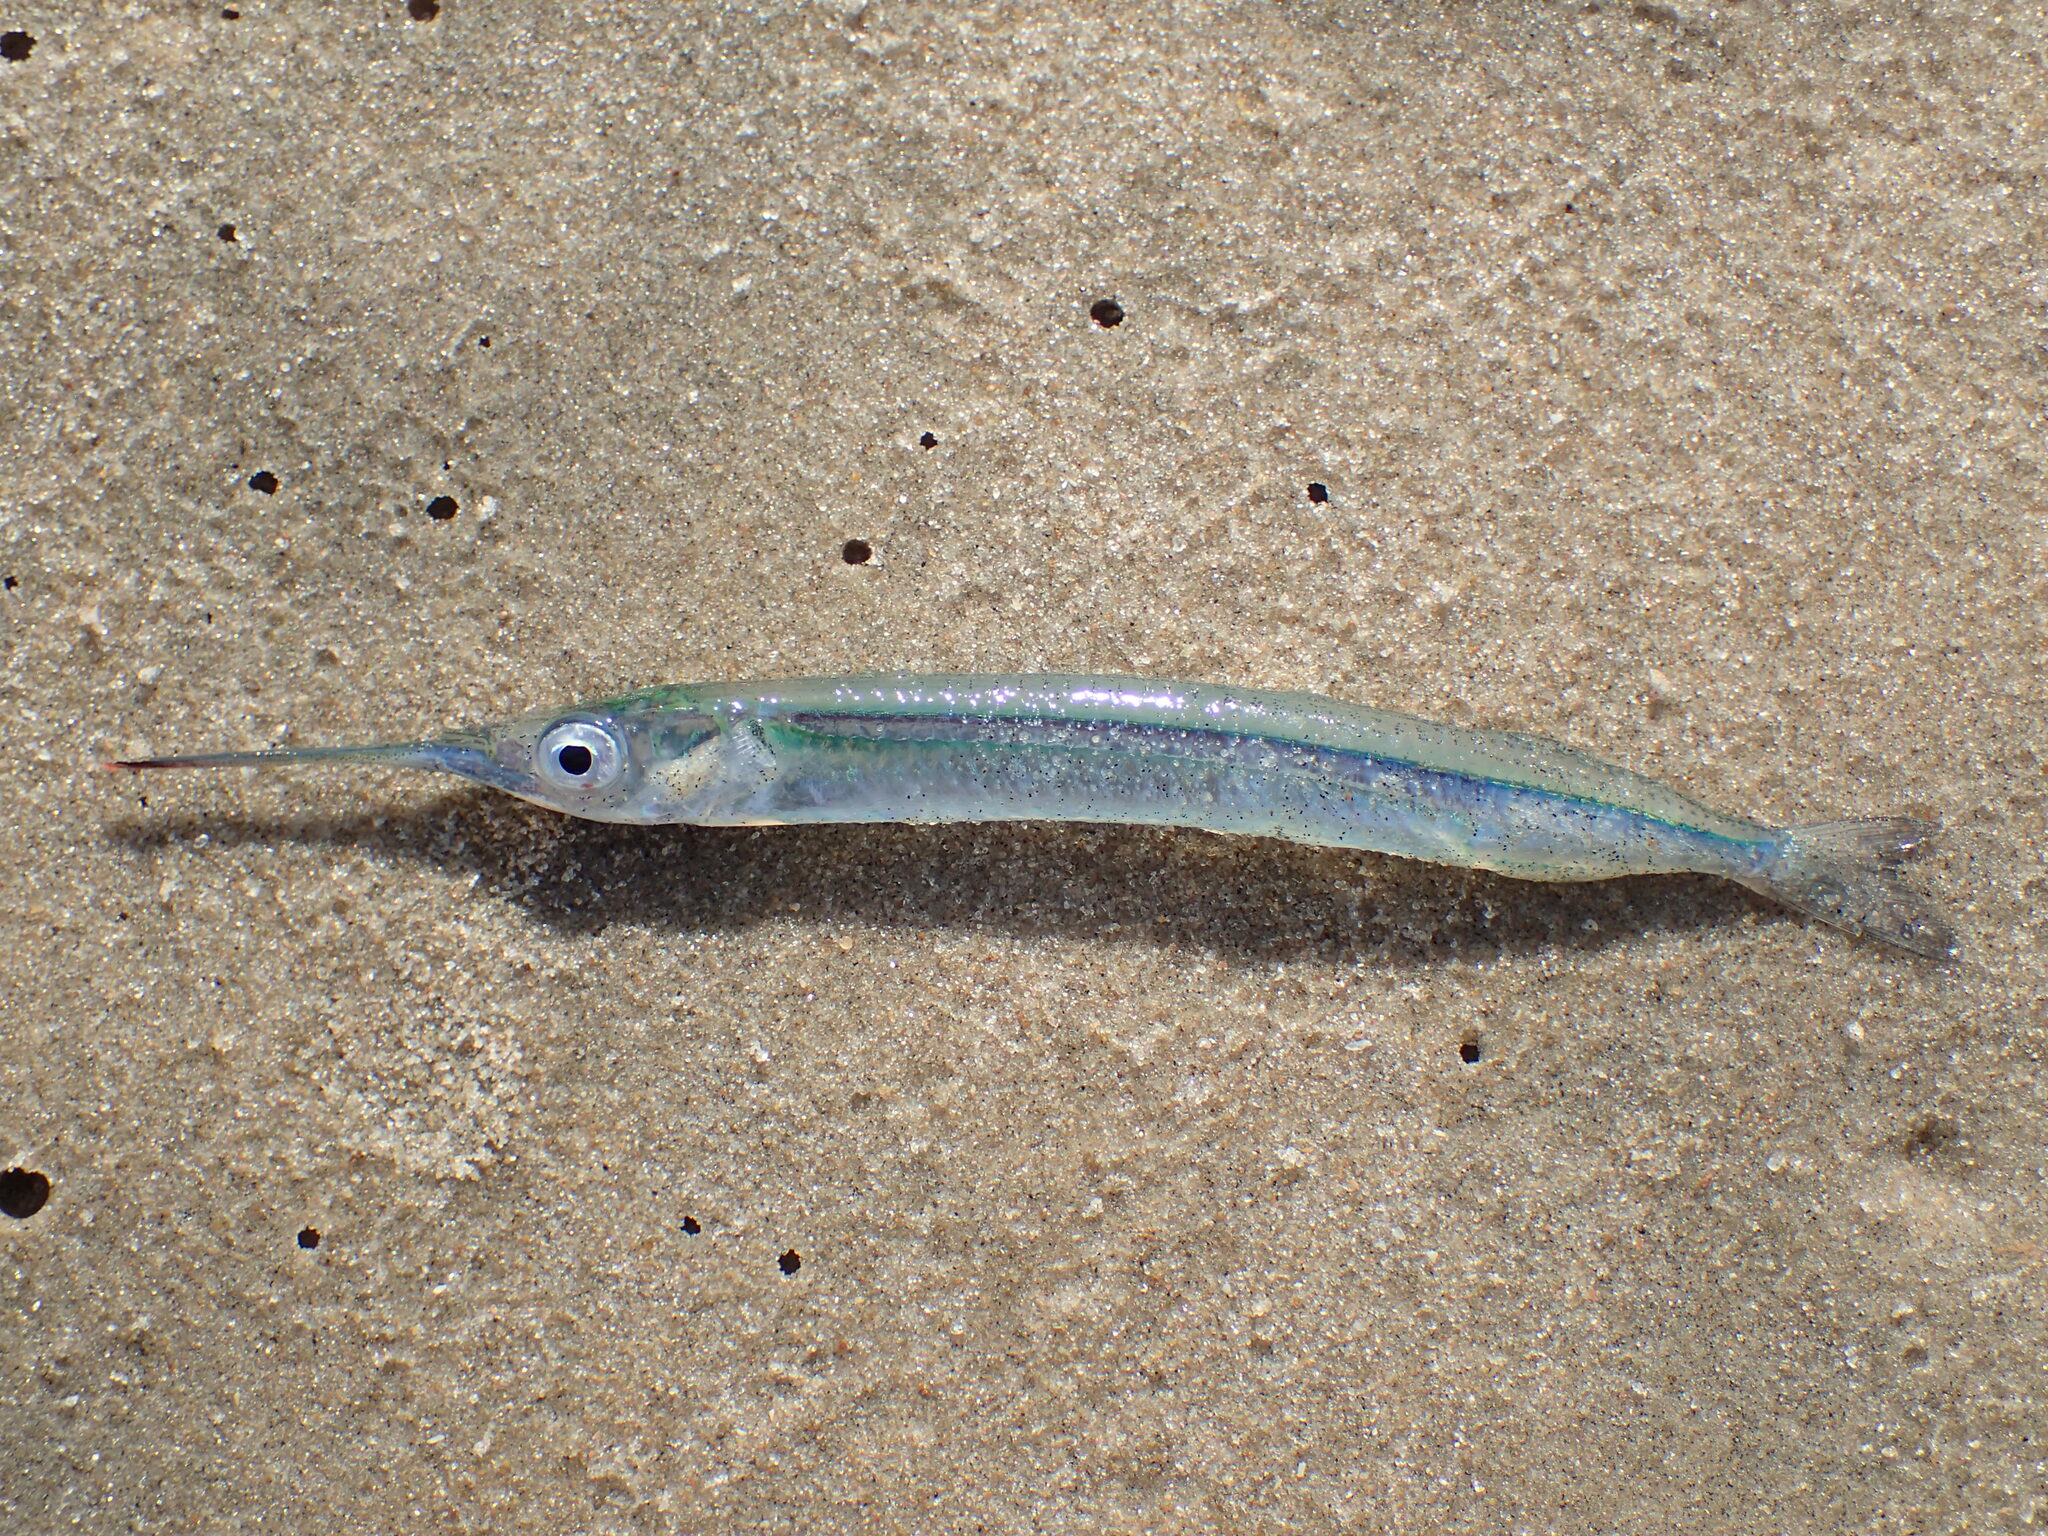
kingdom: Animalia
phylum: Chordata
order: Beloniformes
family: Hemiramphidae
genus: Hyporhamphus
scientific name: Hyporhamphus picarti
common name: African halfbeak
